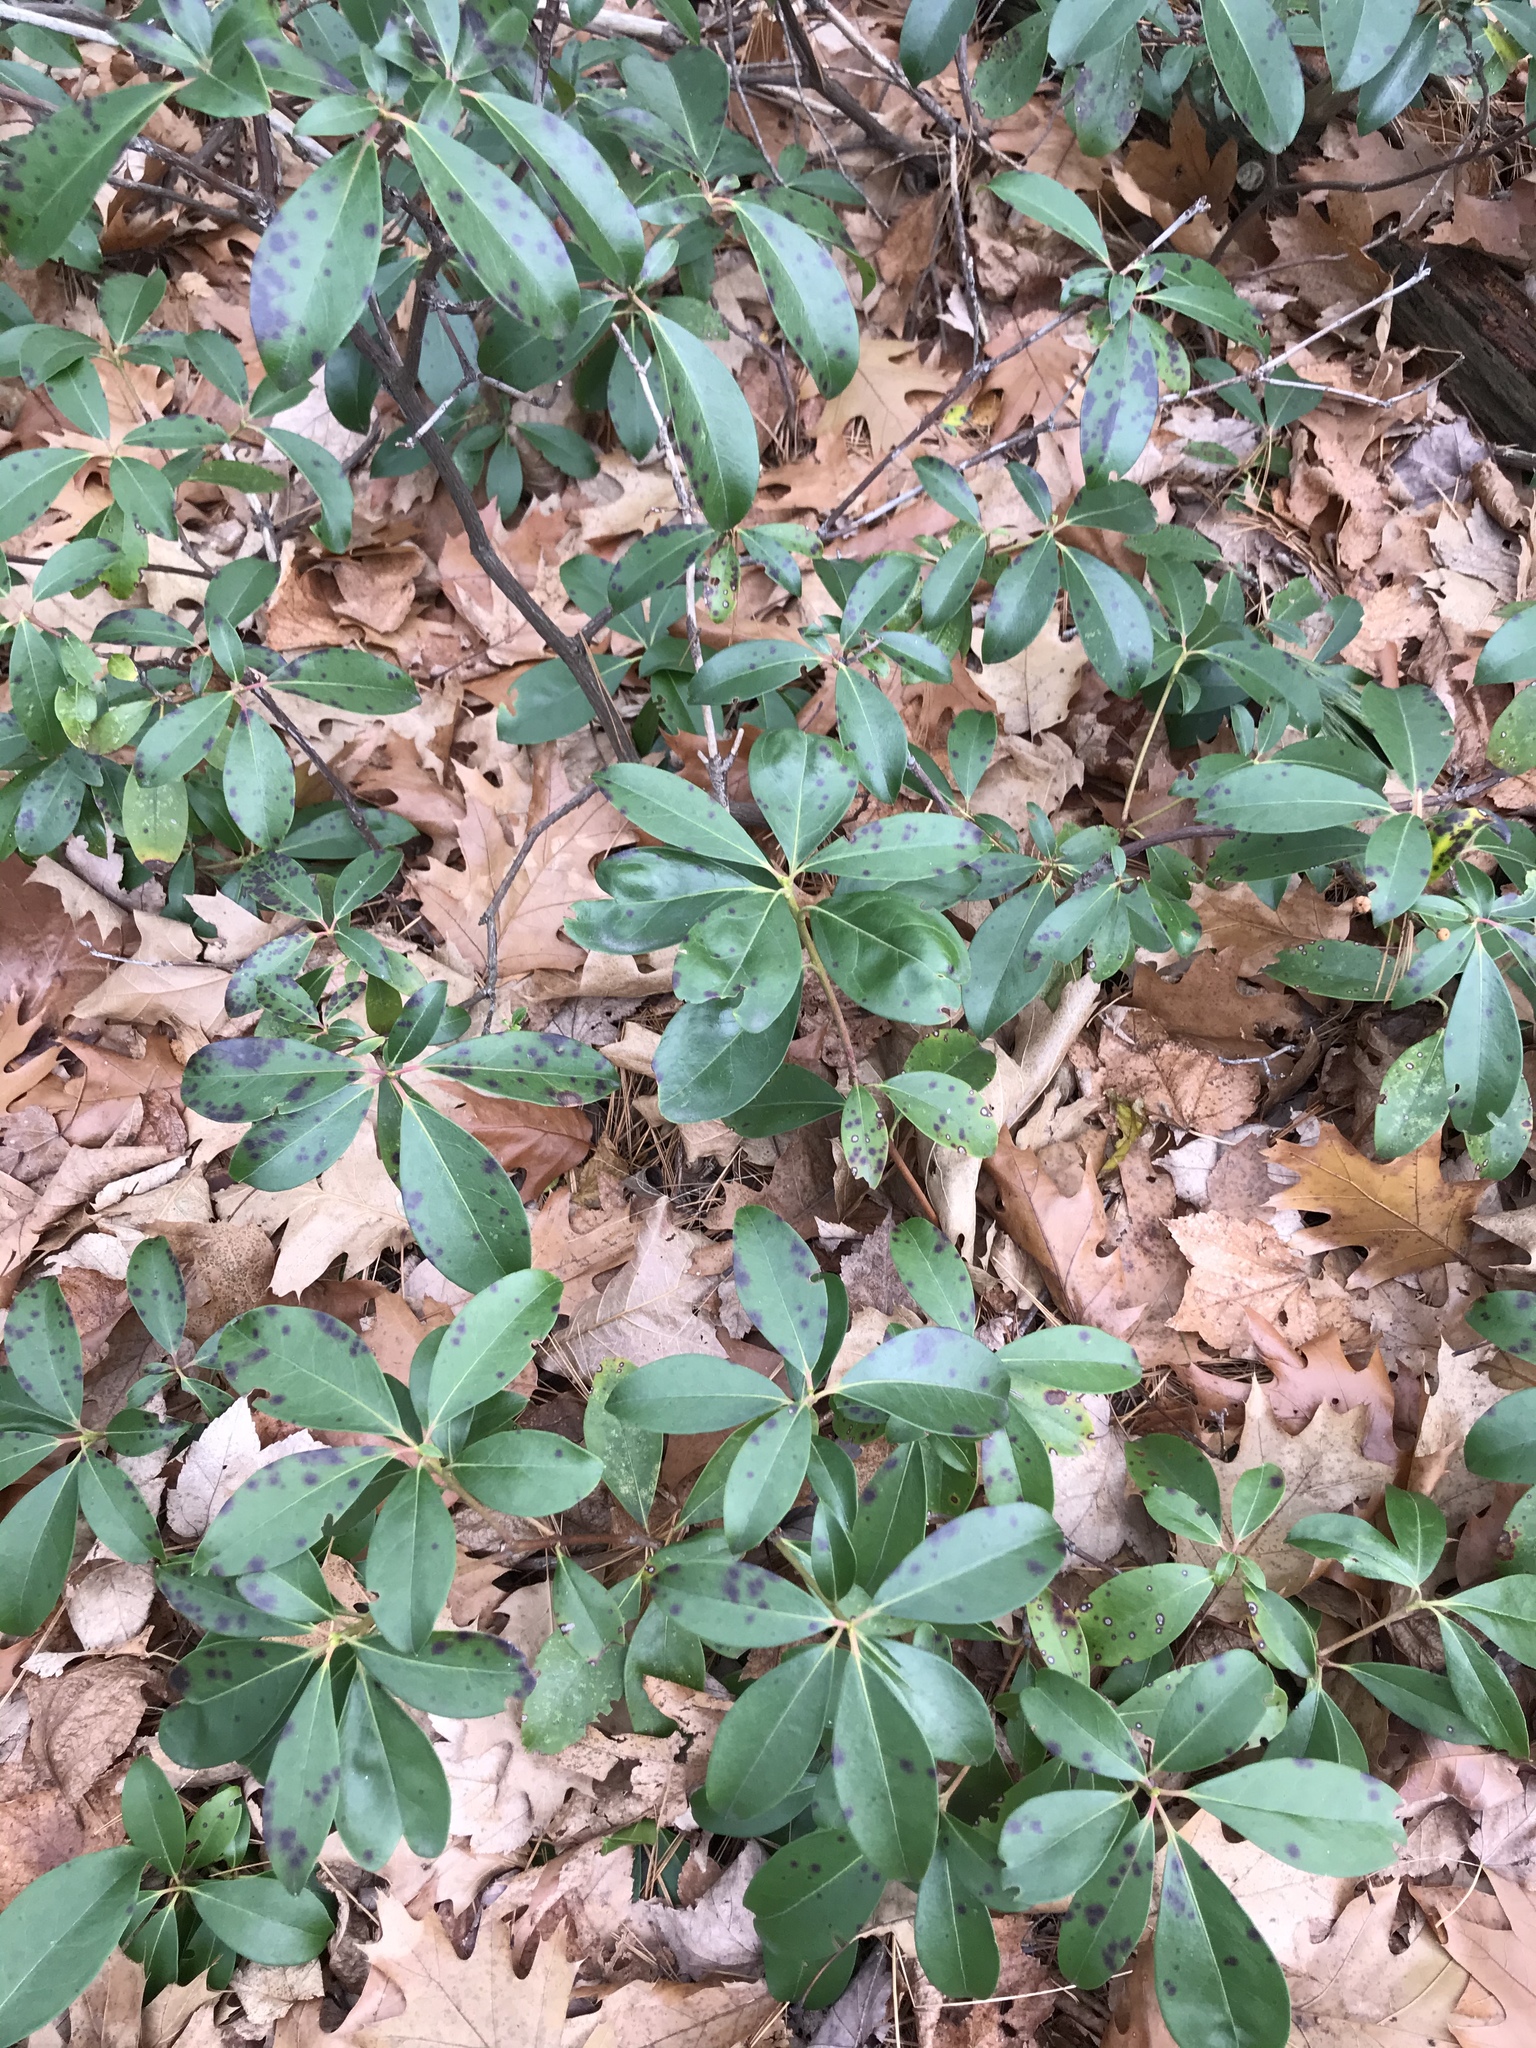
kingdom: Plantae
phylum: Tracheophyta
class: Magnoliopsida
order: Ericales
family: Ericaceae
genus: Kalmia
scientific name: Kalmia latifolia
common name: Mountain-laurel
